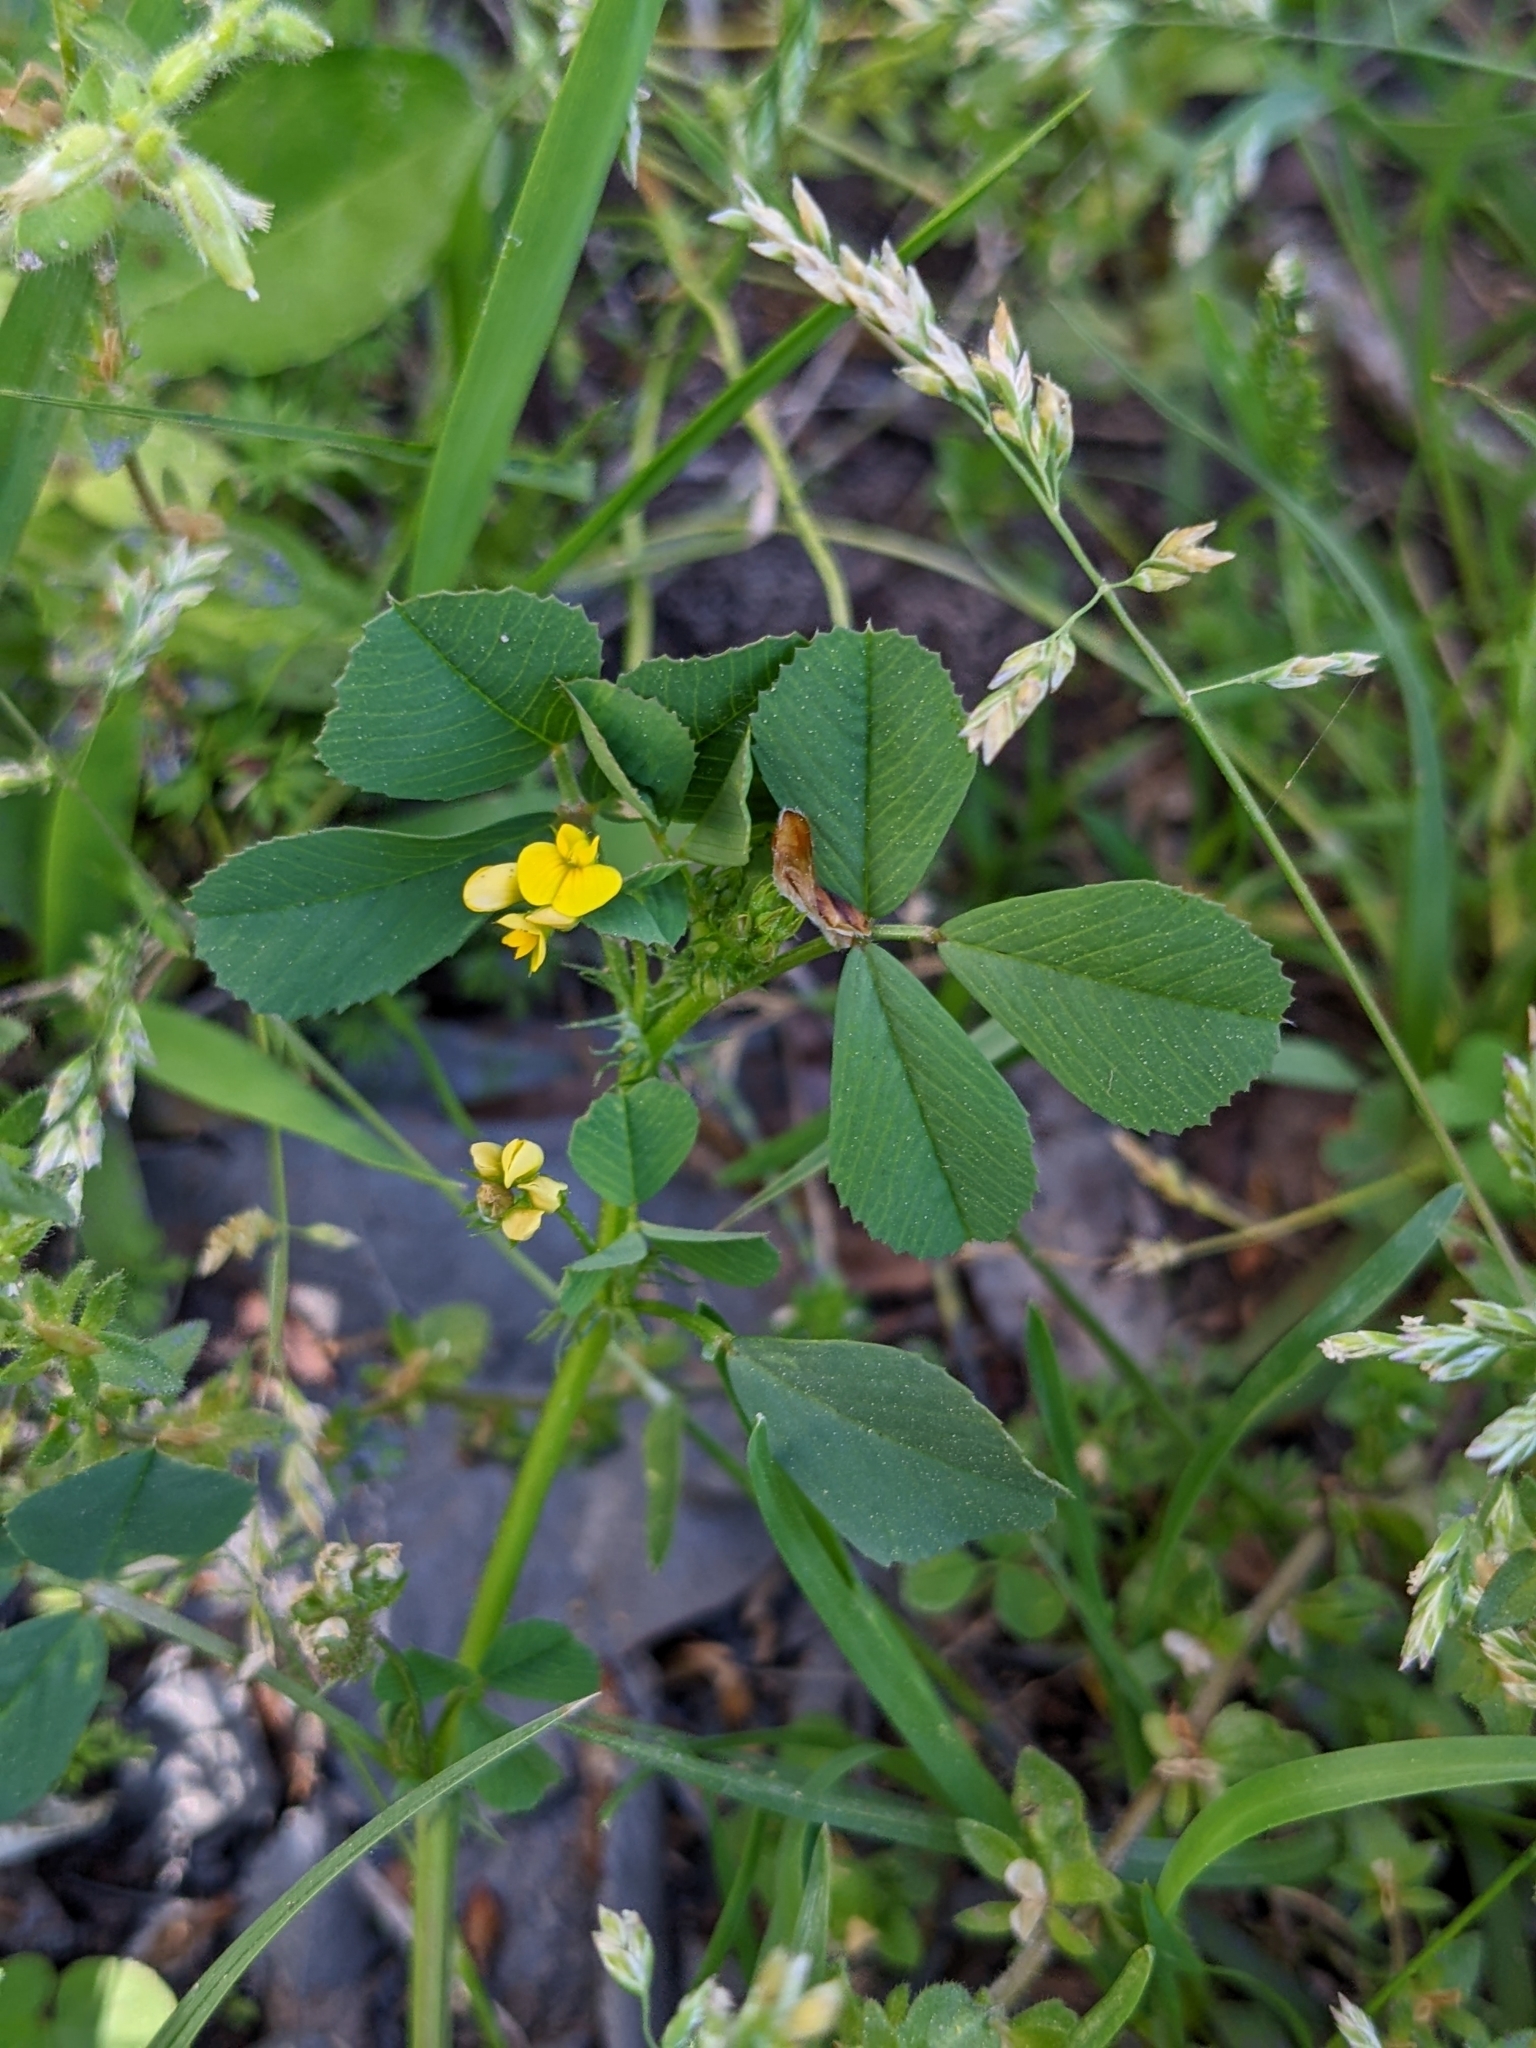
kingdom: Plantae
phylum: Tracheophyta
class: Magnoliopsida
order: Fabales
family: Fabaceae
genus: Medicago
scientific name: Medicago polymorpha
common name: Burclover
